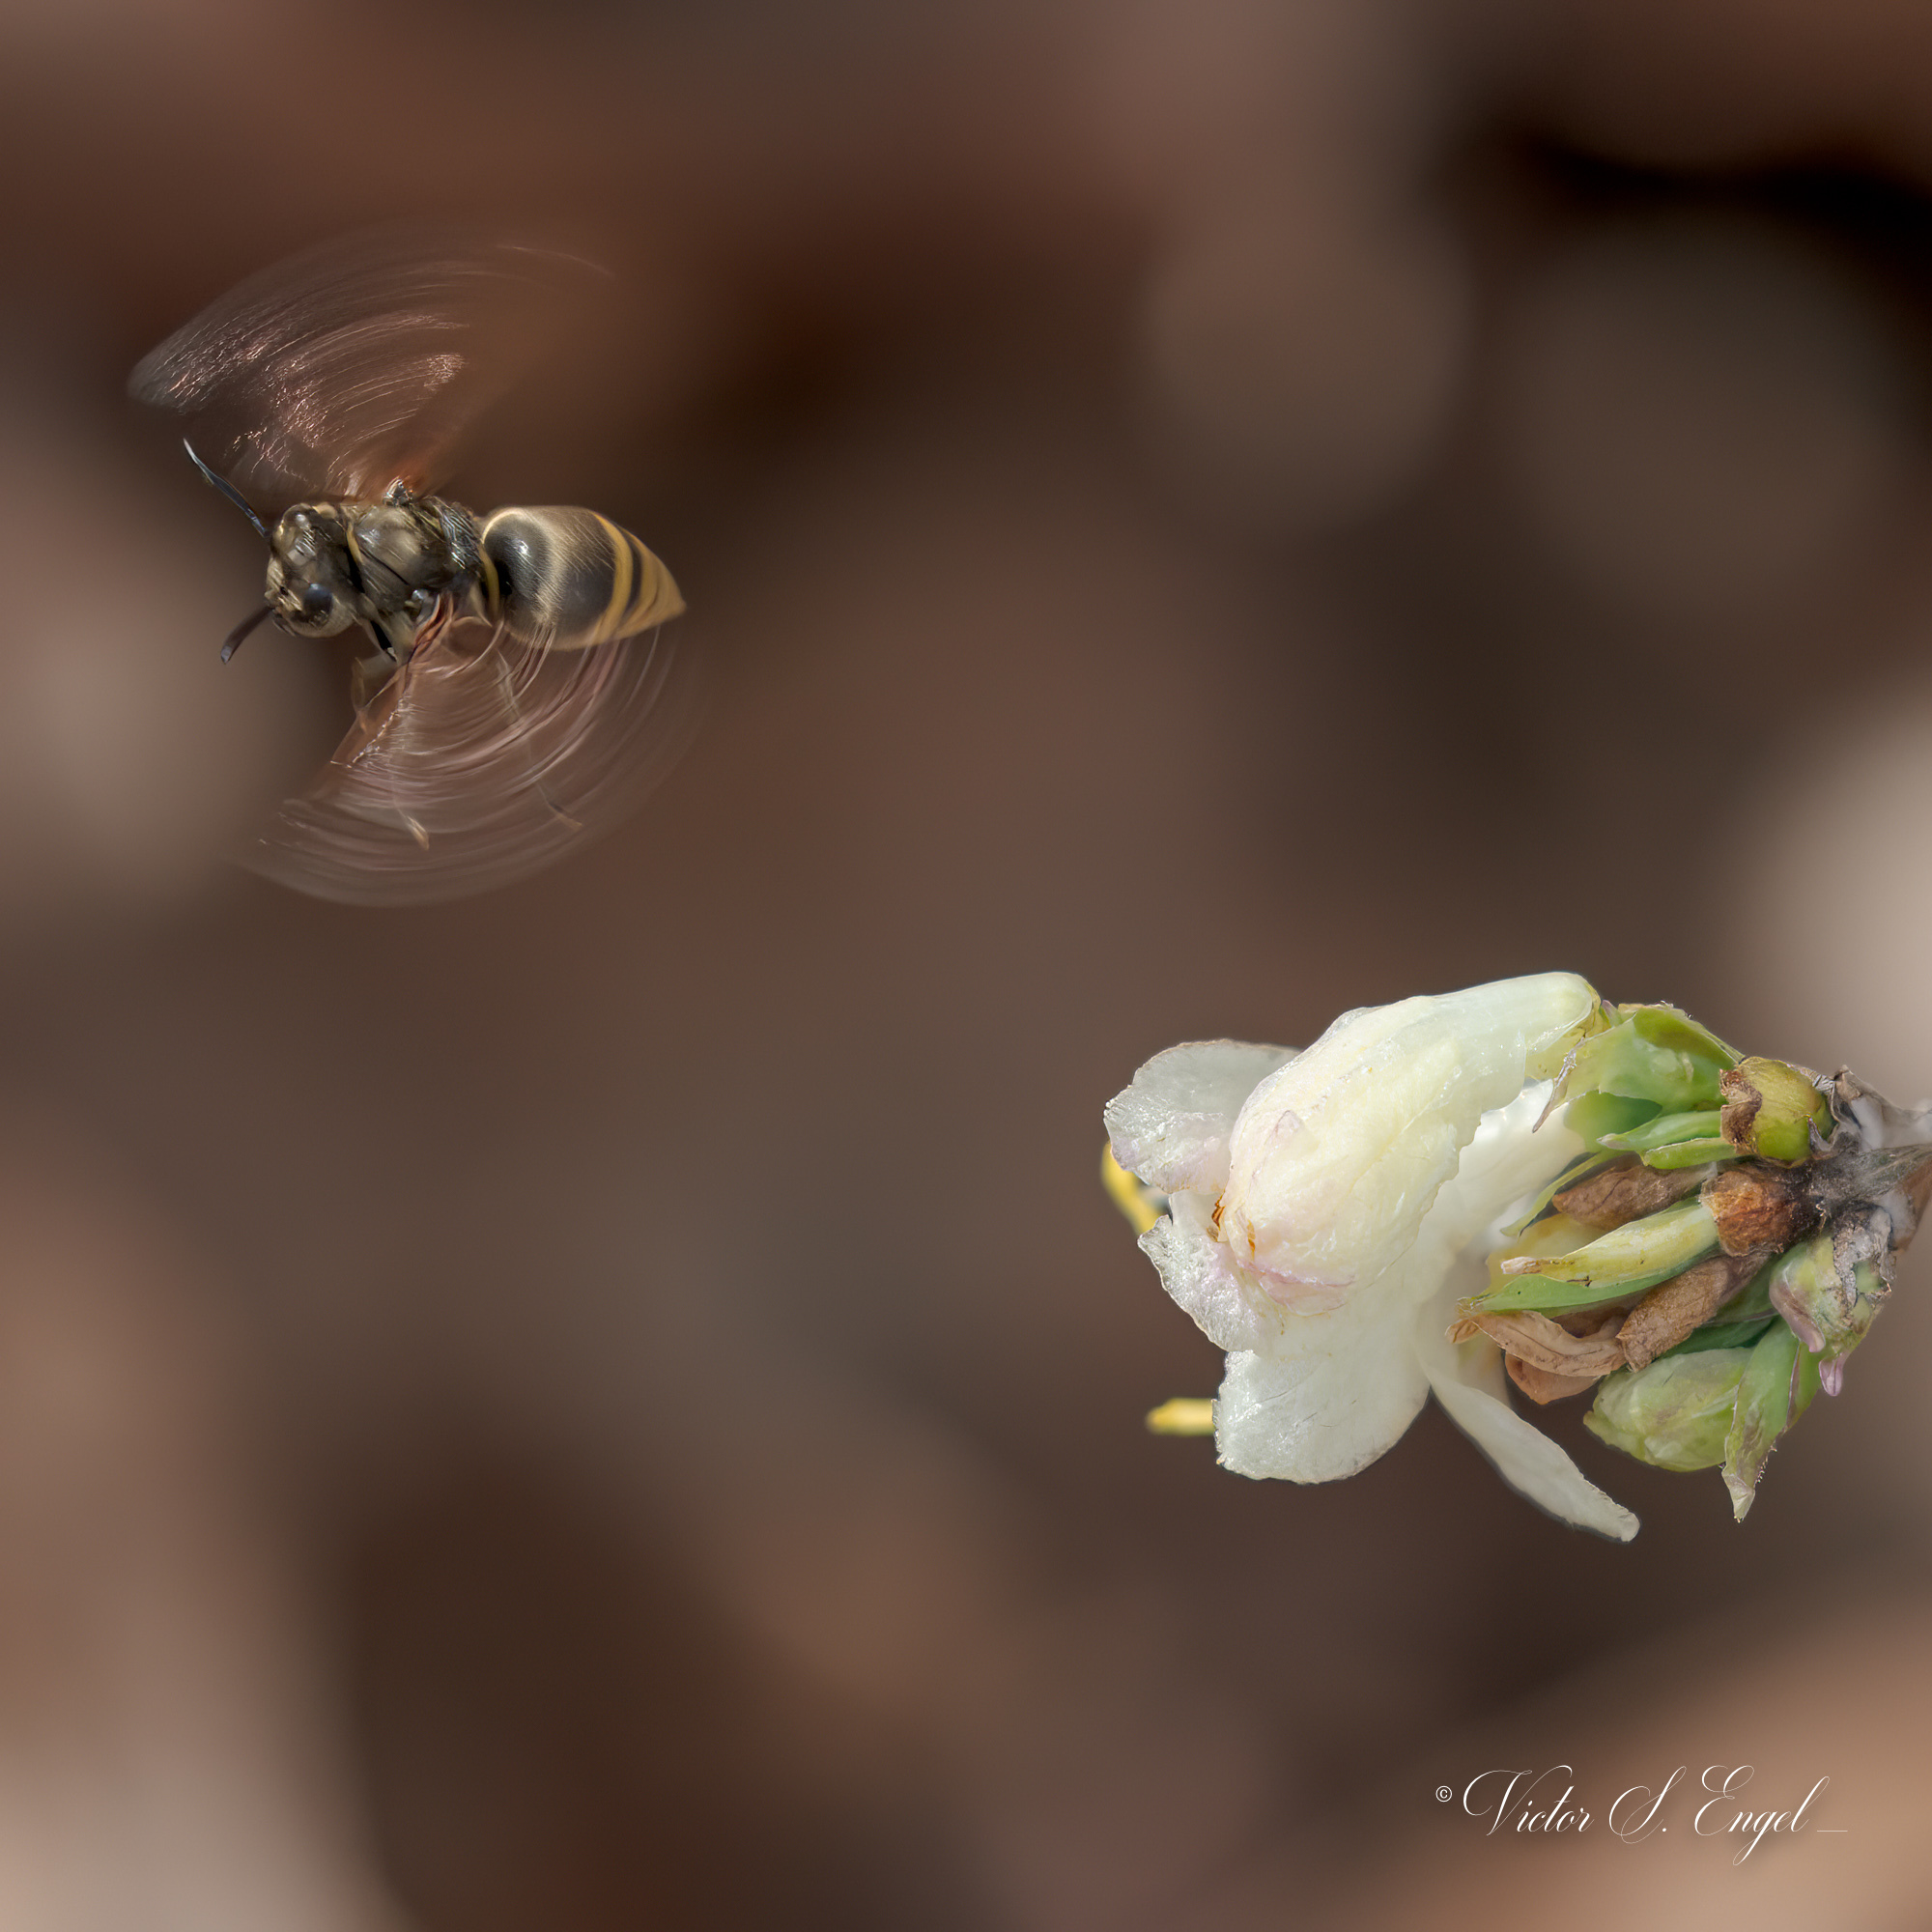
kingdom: Animalia
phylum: Arthropoda
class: Insecta
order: Hymenoptera
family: Vespidae
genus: Brachygastra
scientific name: Brachygastra mellifica
